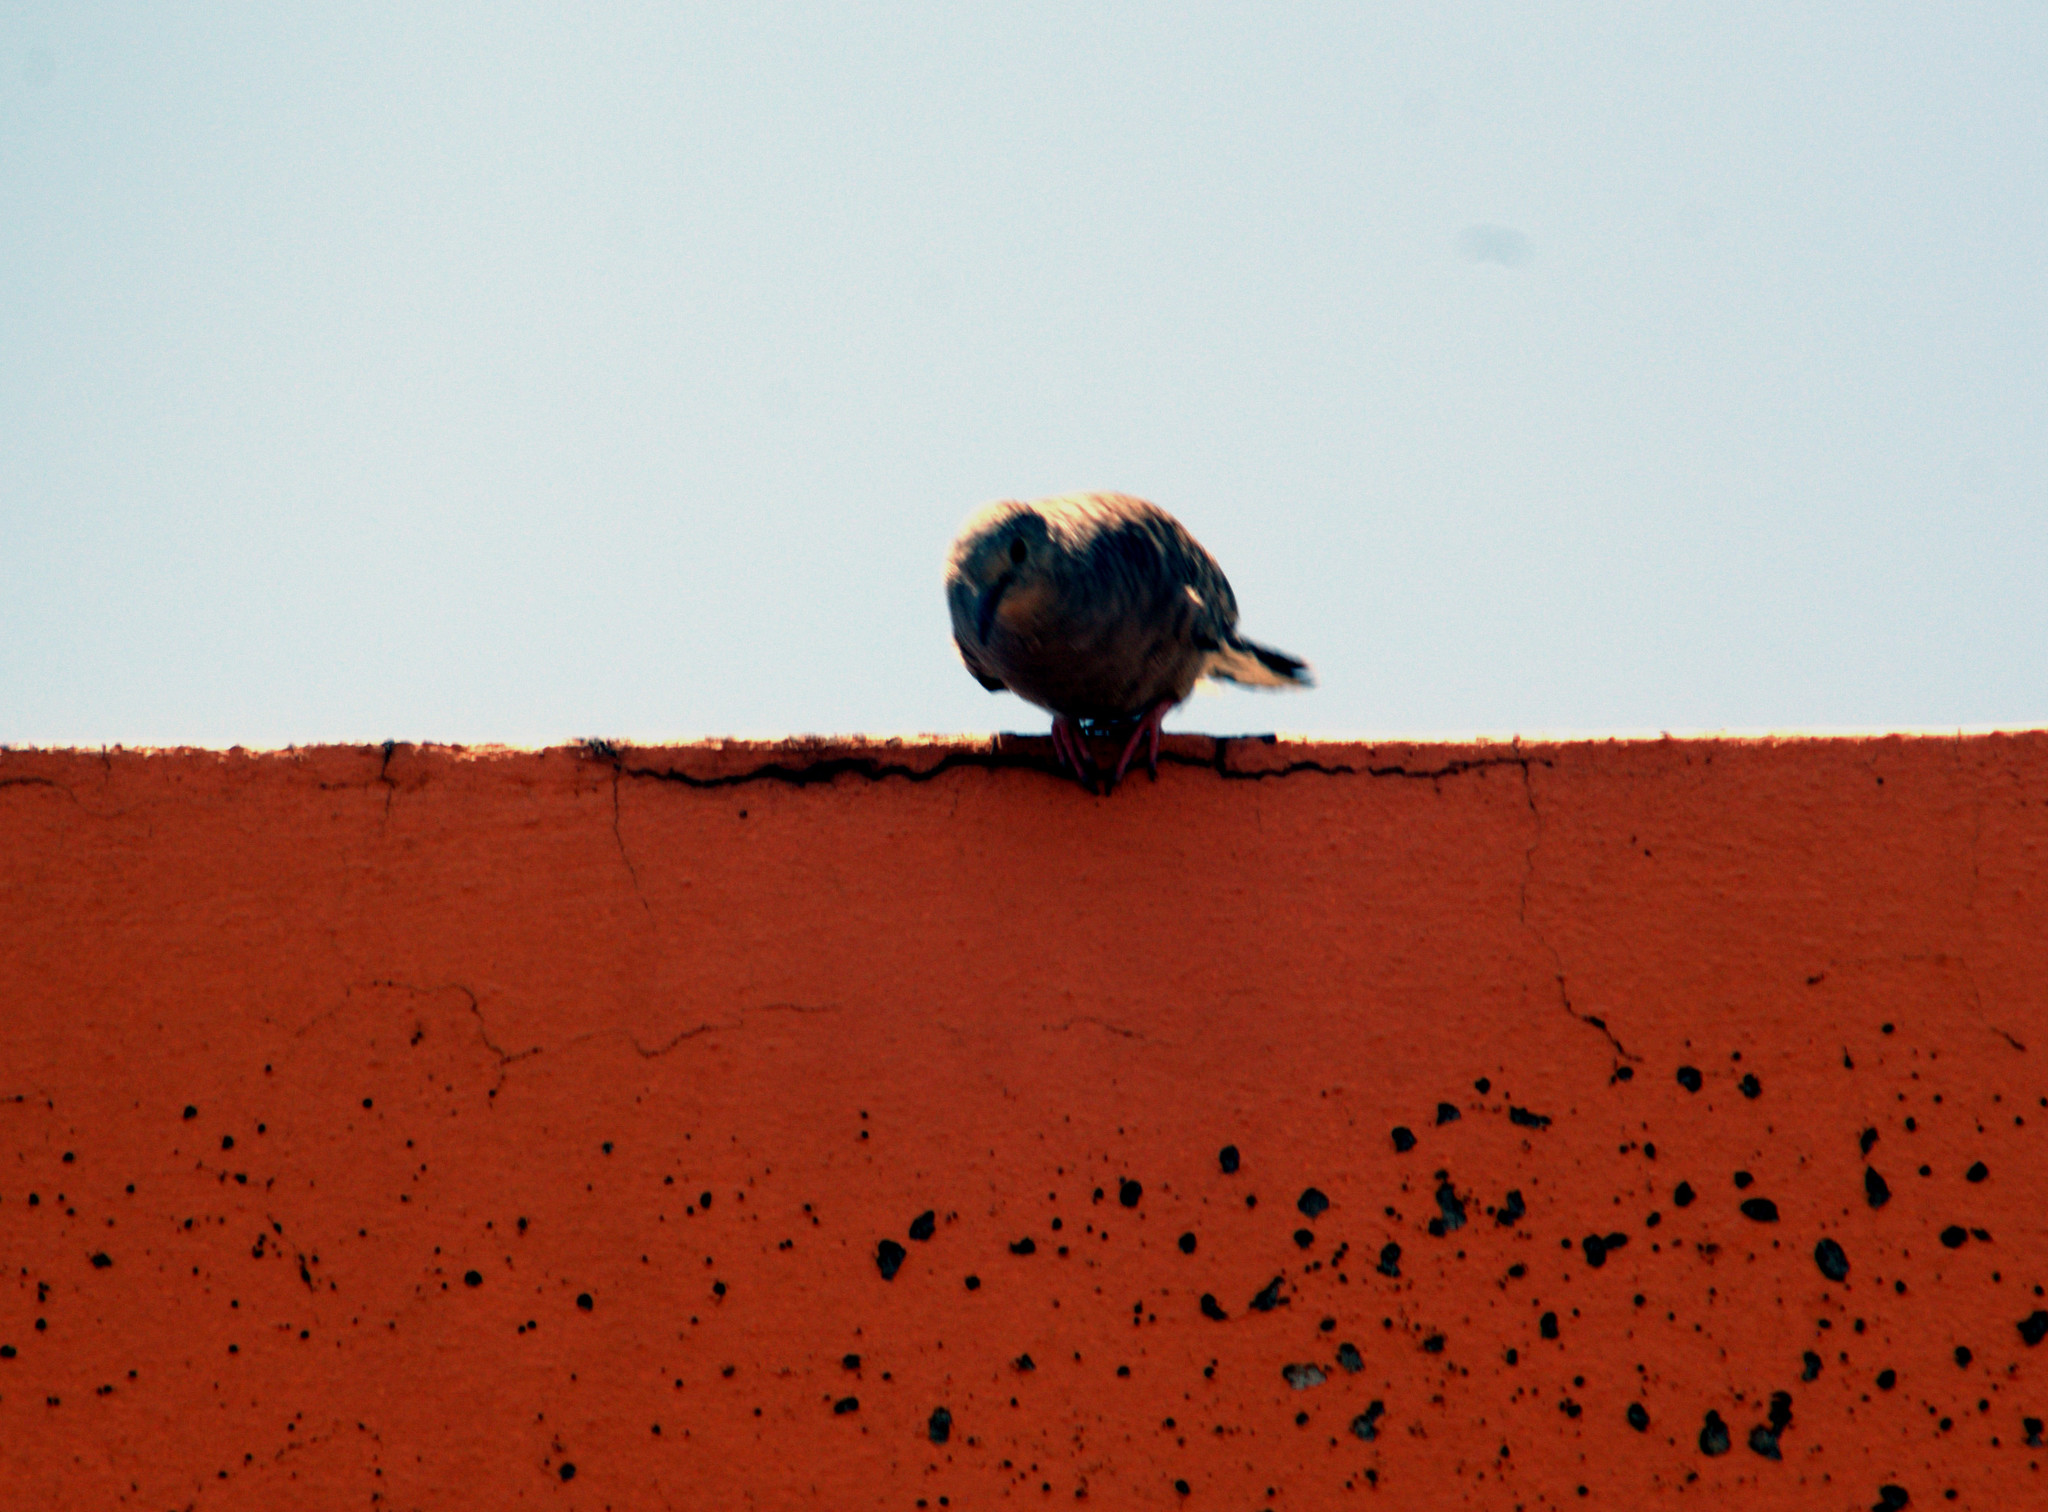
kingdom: Animalia
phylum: Chordata
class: Aves
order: Columbiformes
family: Columbidae
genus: Columbina
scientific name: Columbina inca
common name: Inca dove
